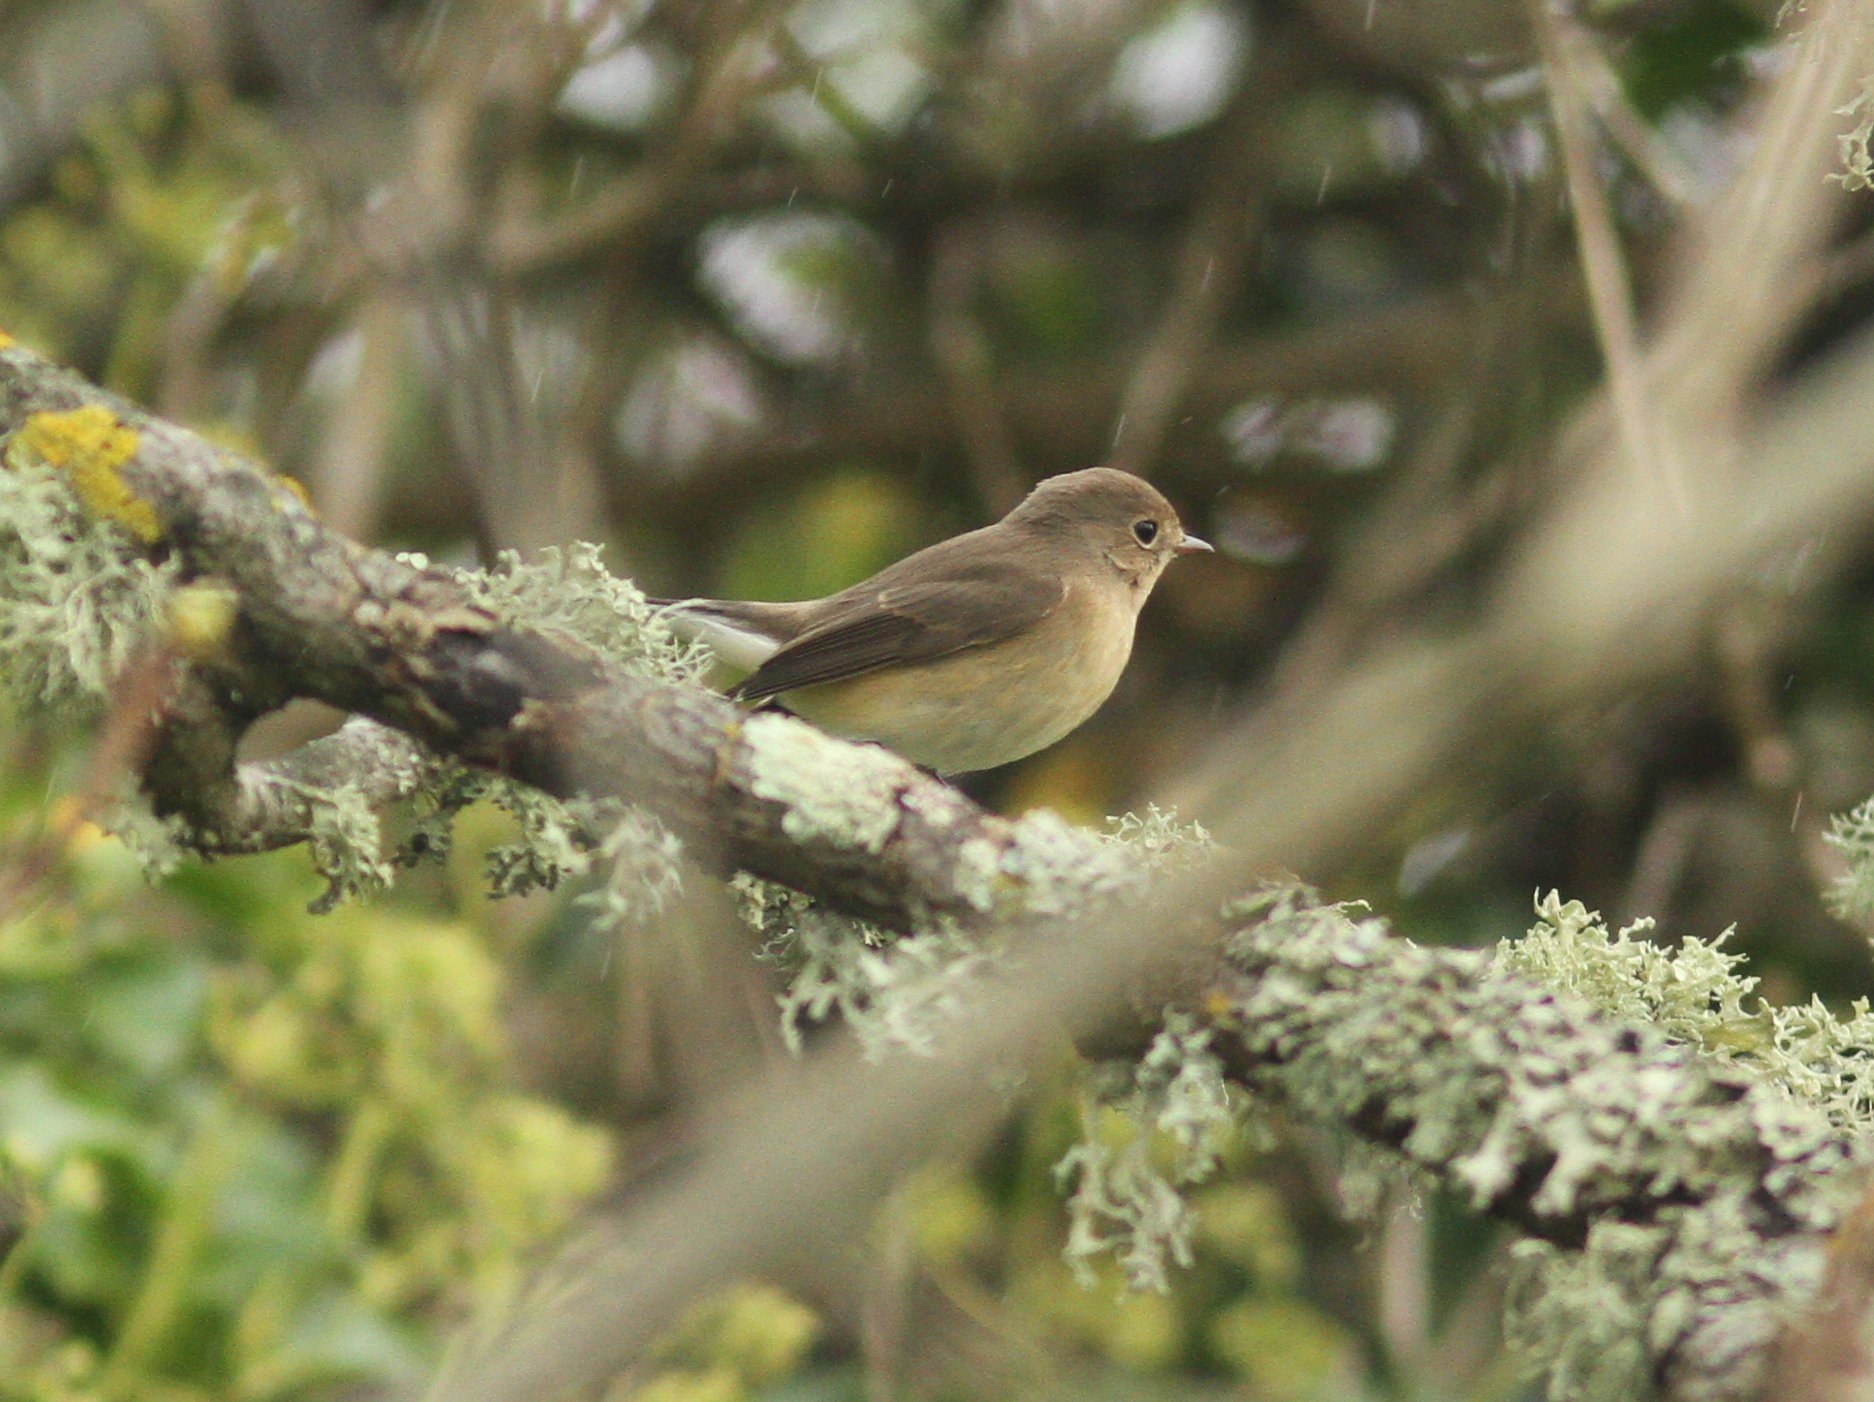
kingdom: Animalia
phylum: Chordata
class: Aves
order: Passeriformes
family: Muscicapidae
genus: Ficedula
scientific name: Ficedula parva
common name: Red-breasted flycatcher
